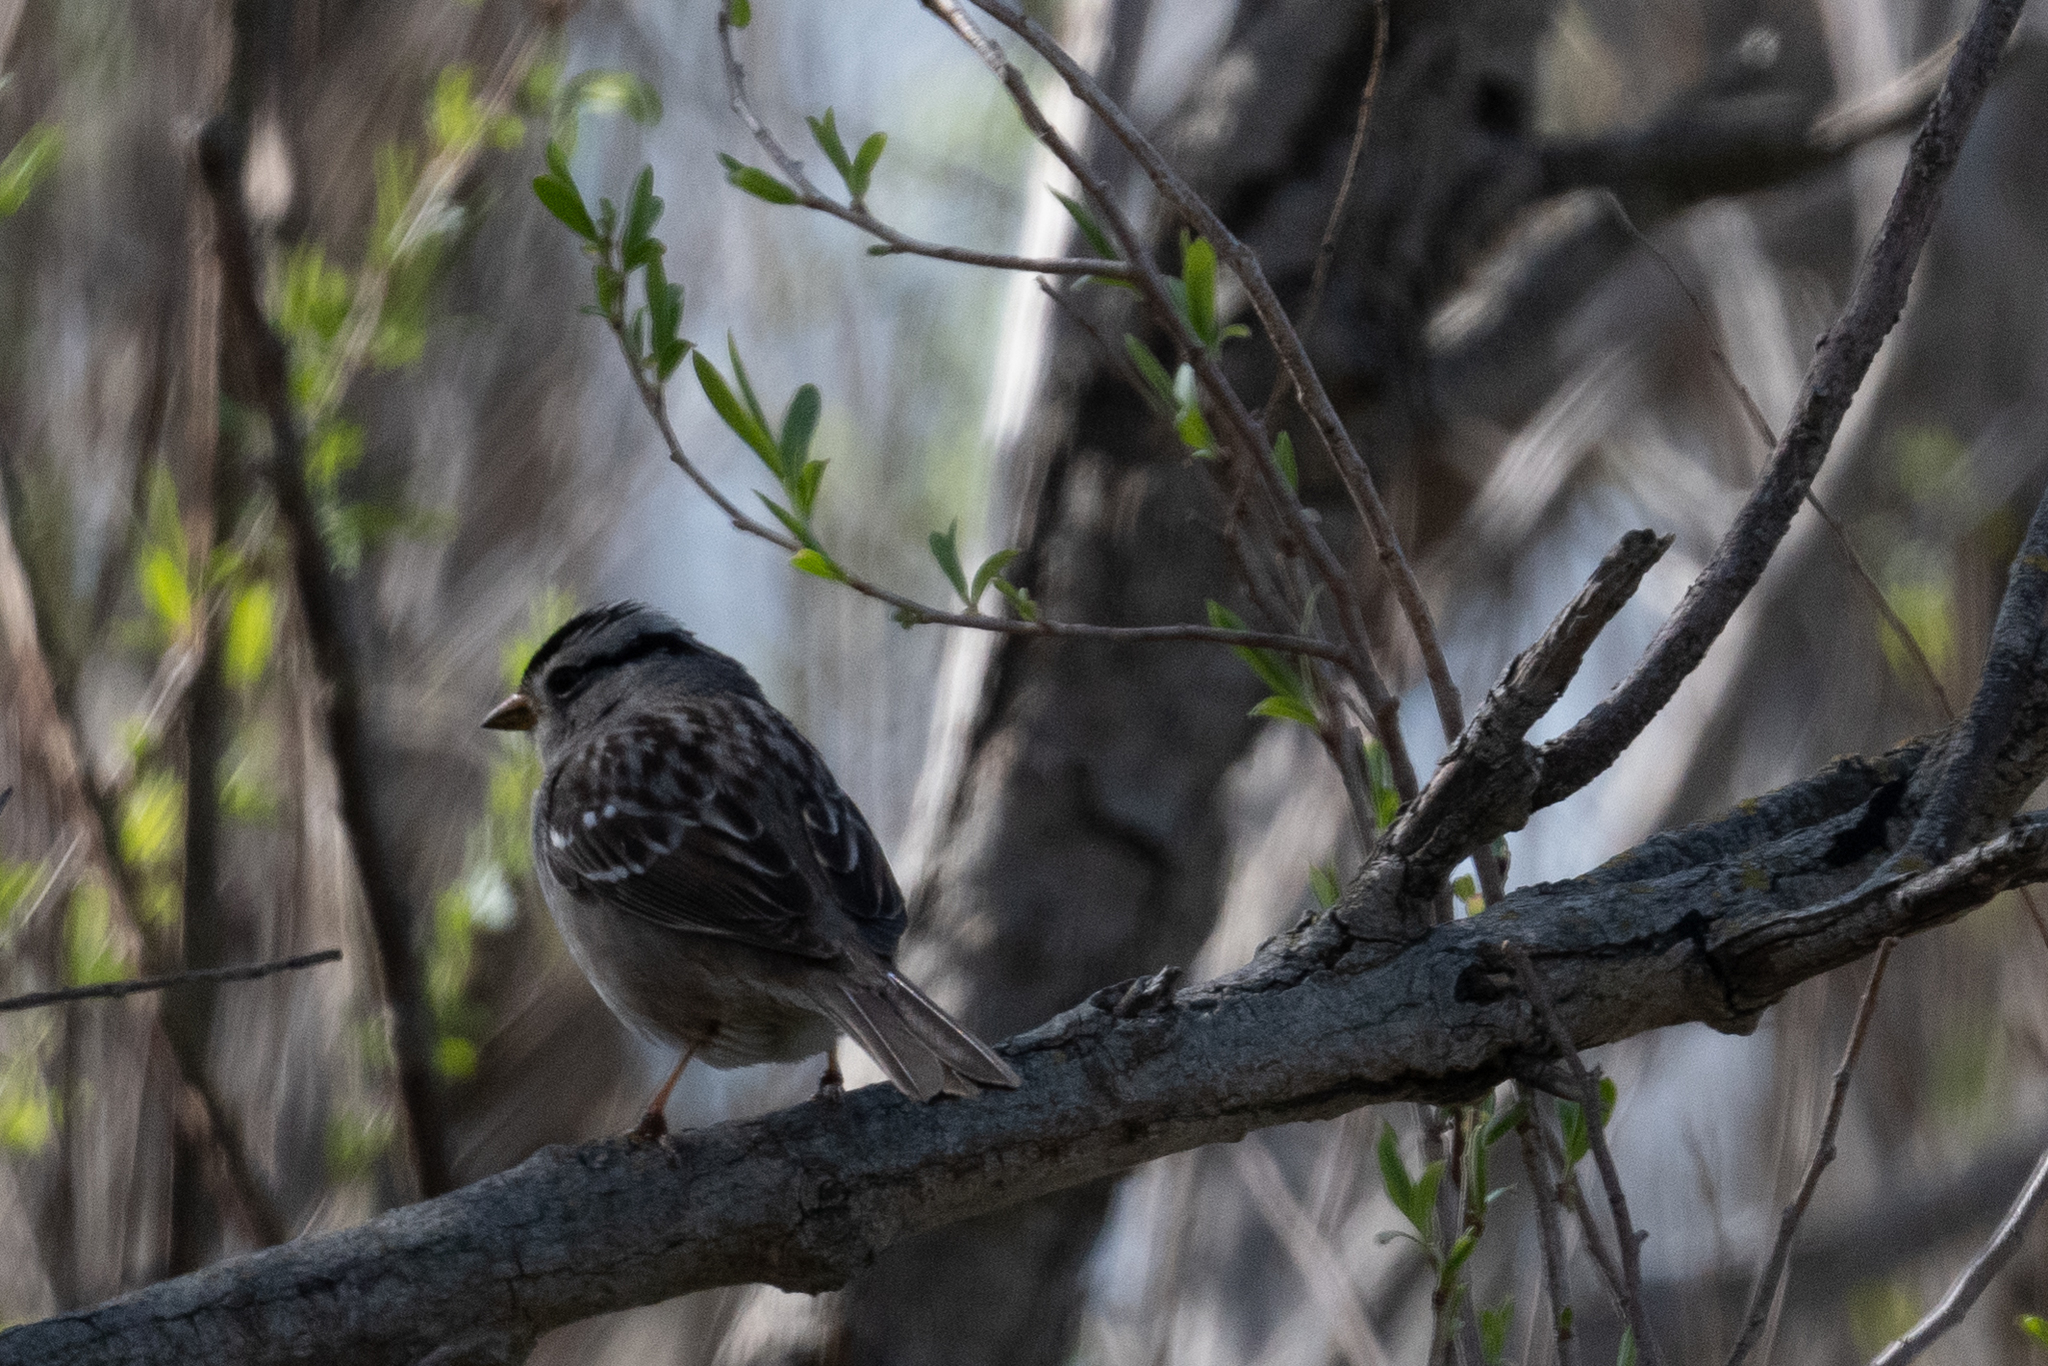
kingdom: Animalia
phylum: Chordata
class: Aves
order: Passeriformes
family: Passerellidae
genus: Zonotrichia
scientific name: Zonotrichia leucophrys
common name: White-crowned sparrow
